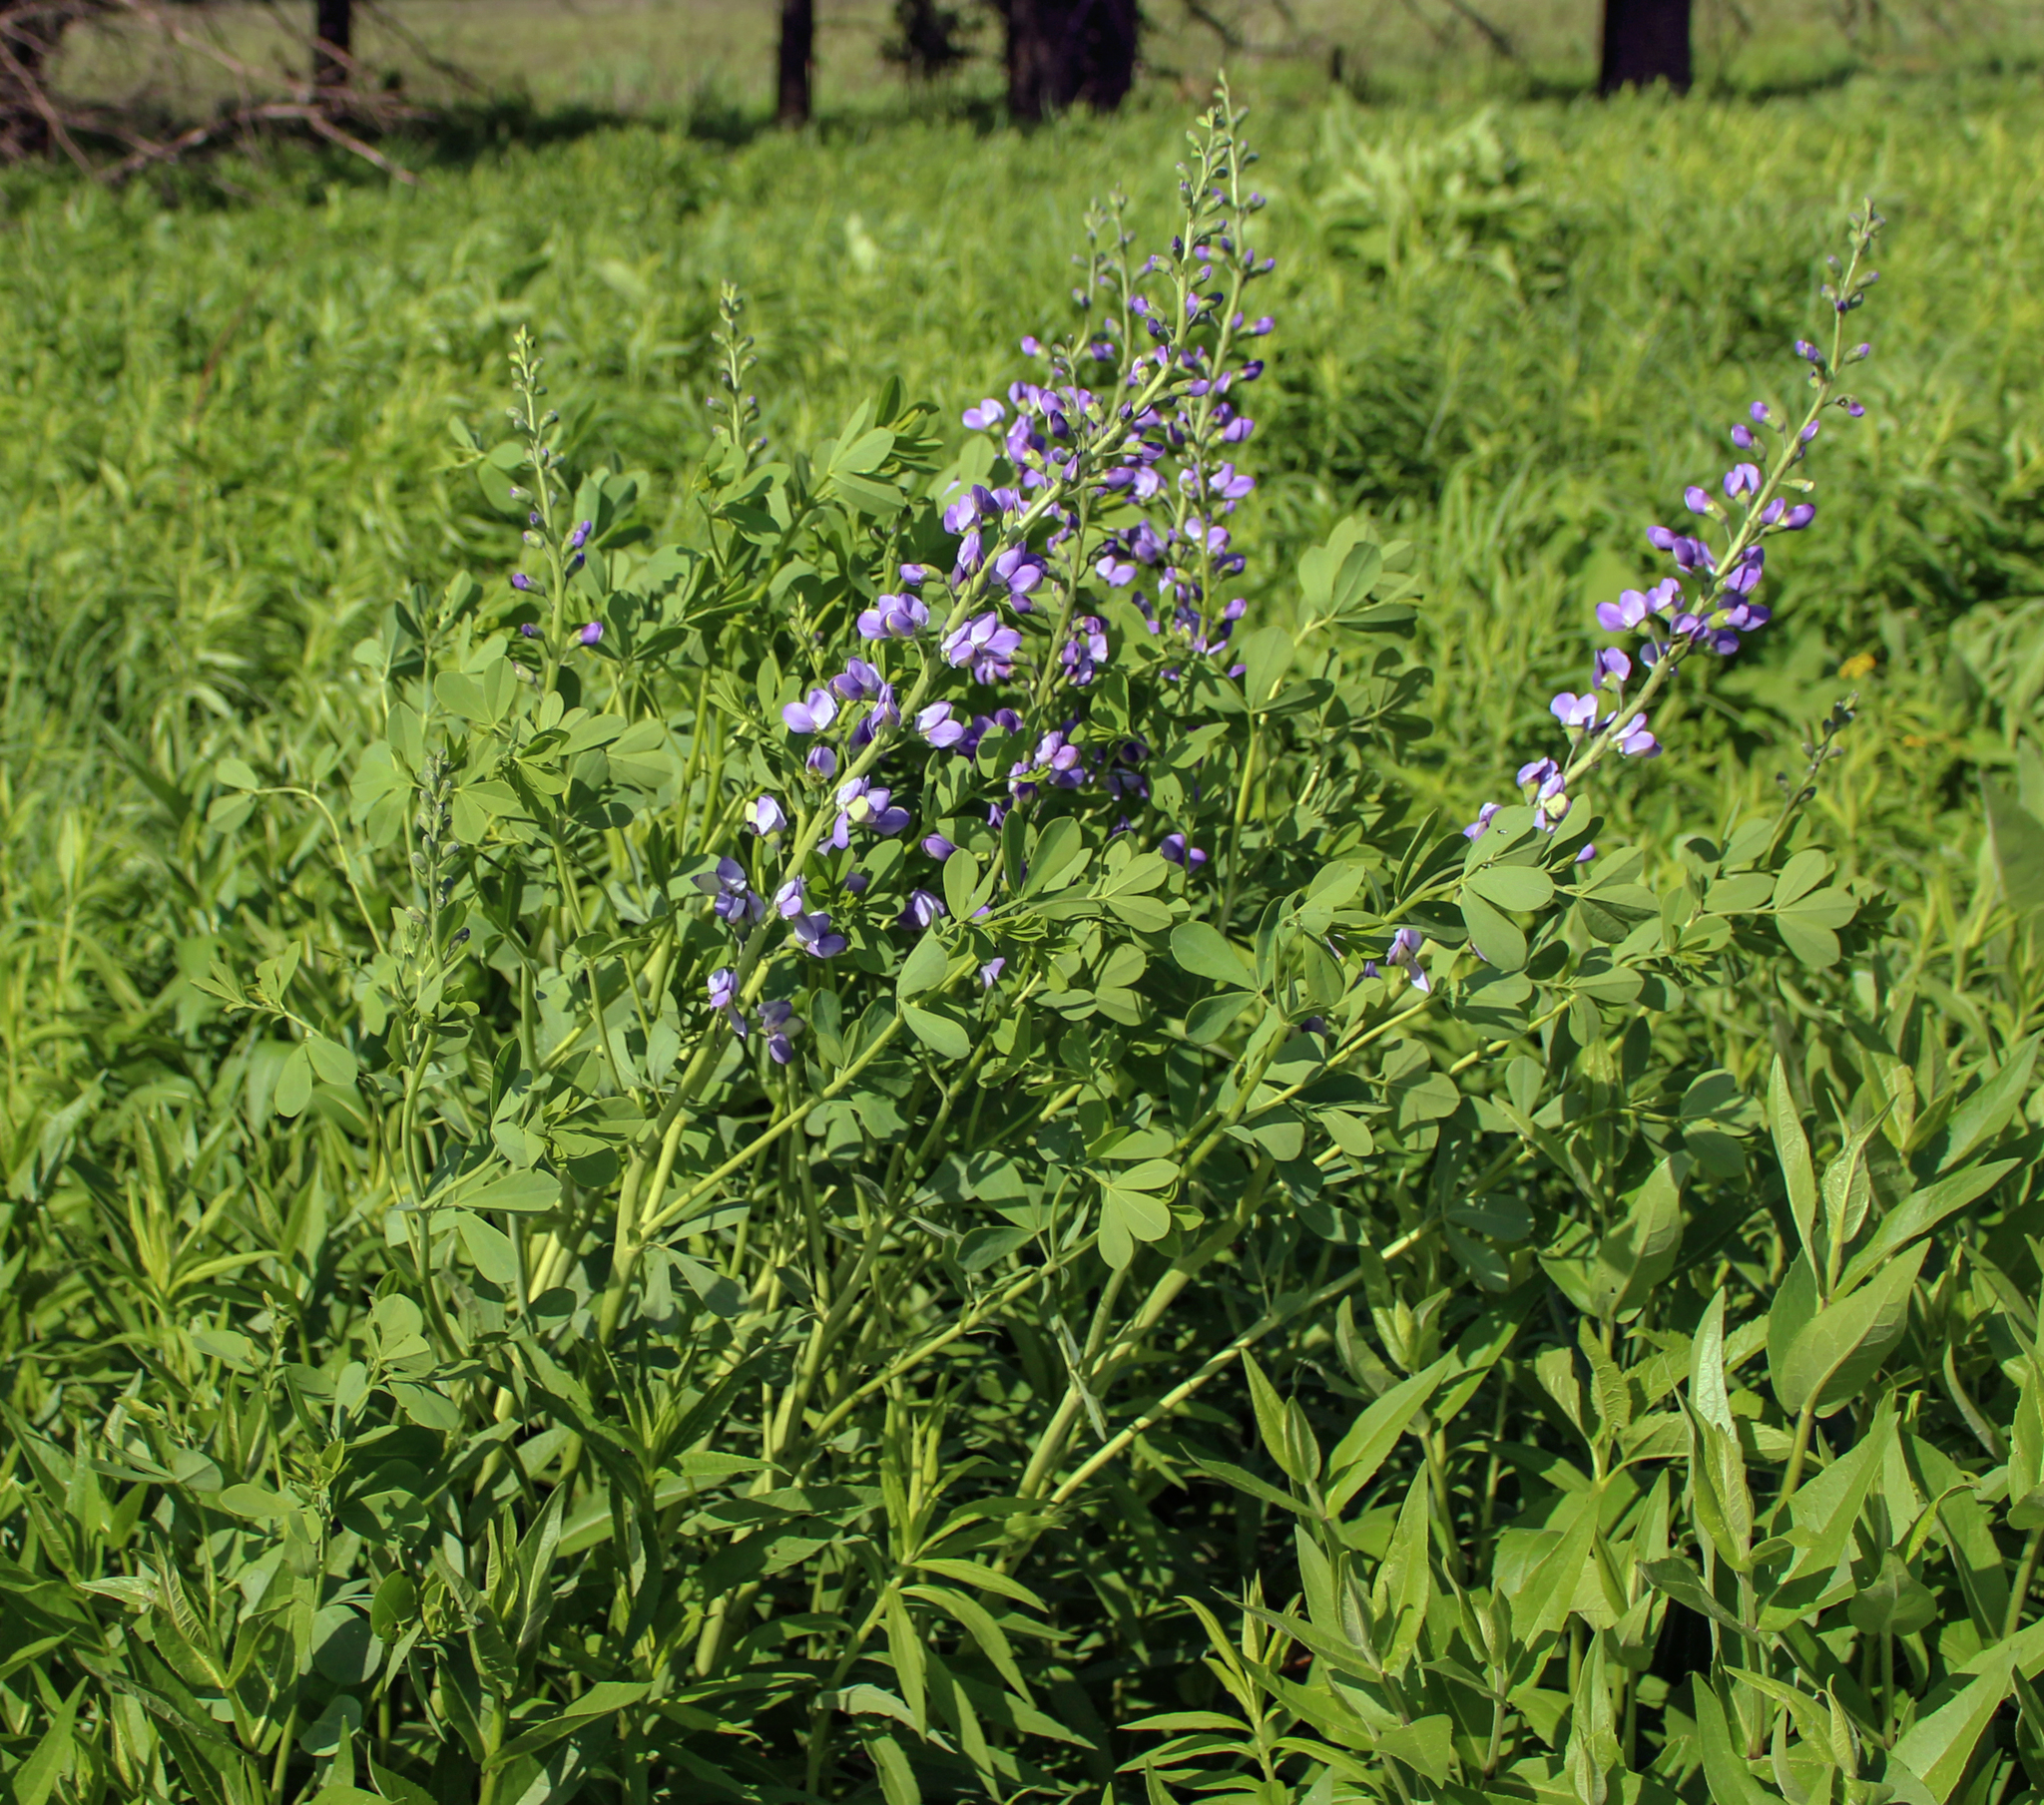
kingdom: Plantae
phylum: Tracheophyta
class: Magnoliopsida
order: Fabales
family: Fabaceae
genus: Baptisia
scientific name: Baptisia australis
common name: Blue false indigo
